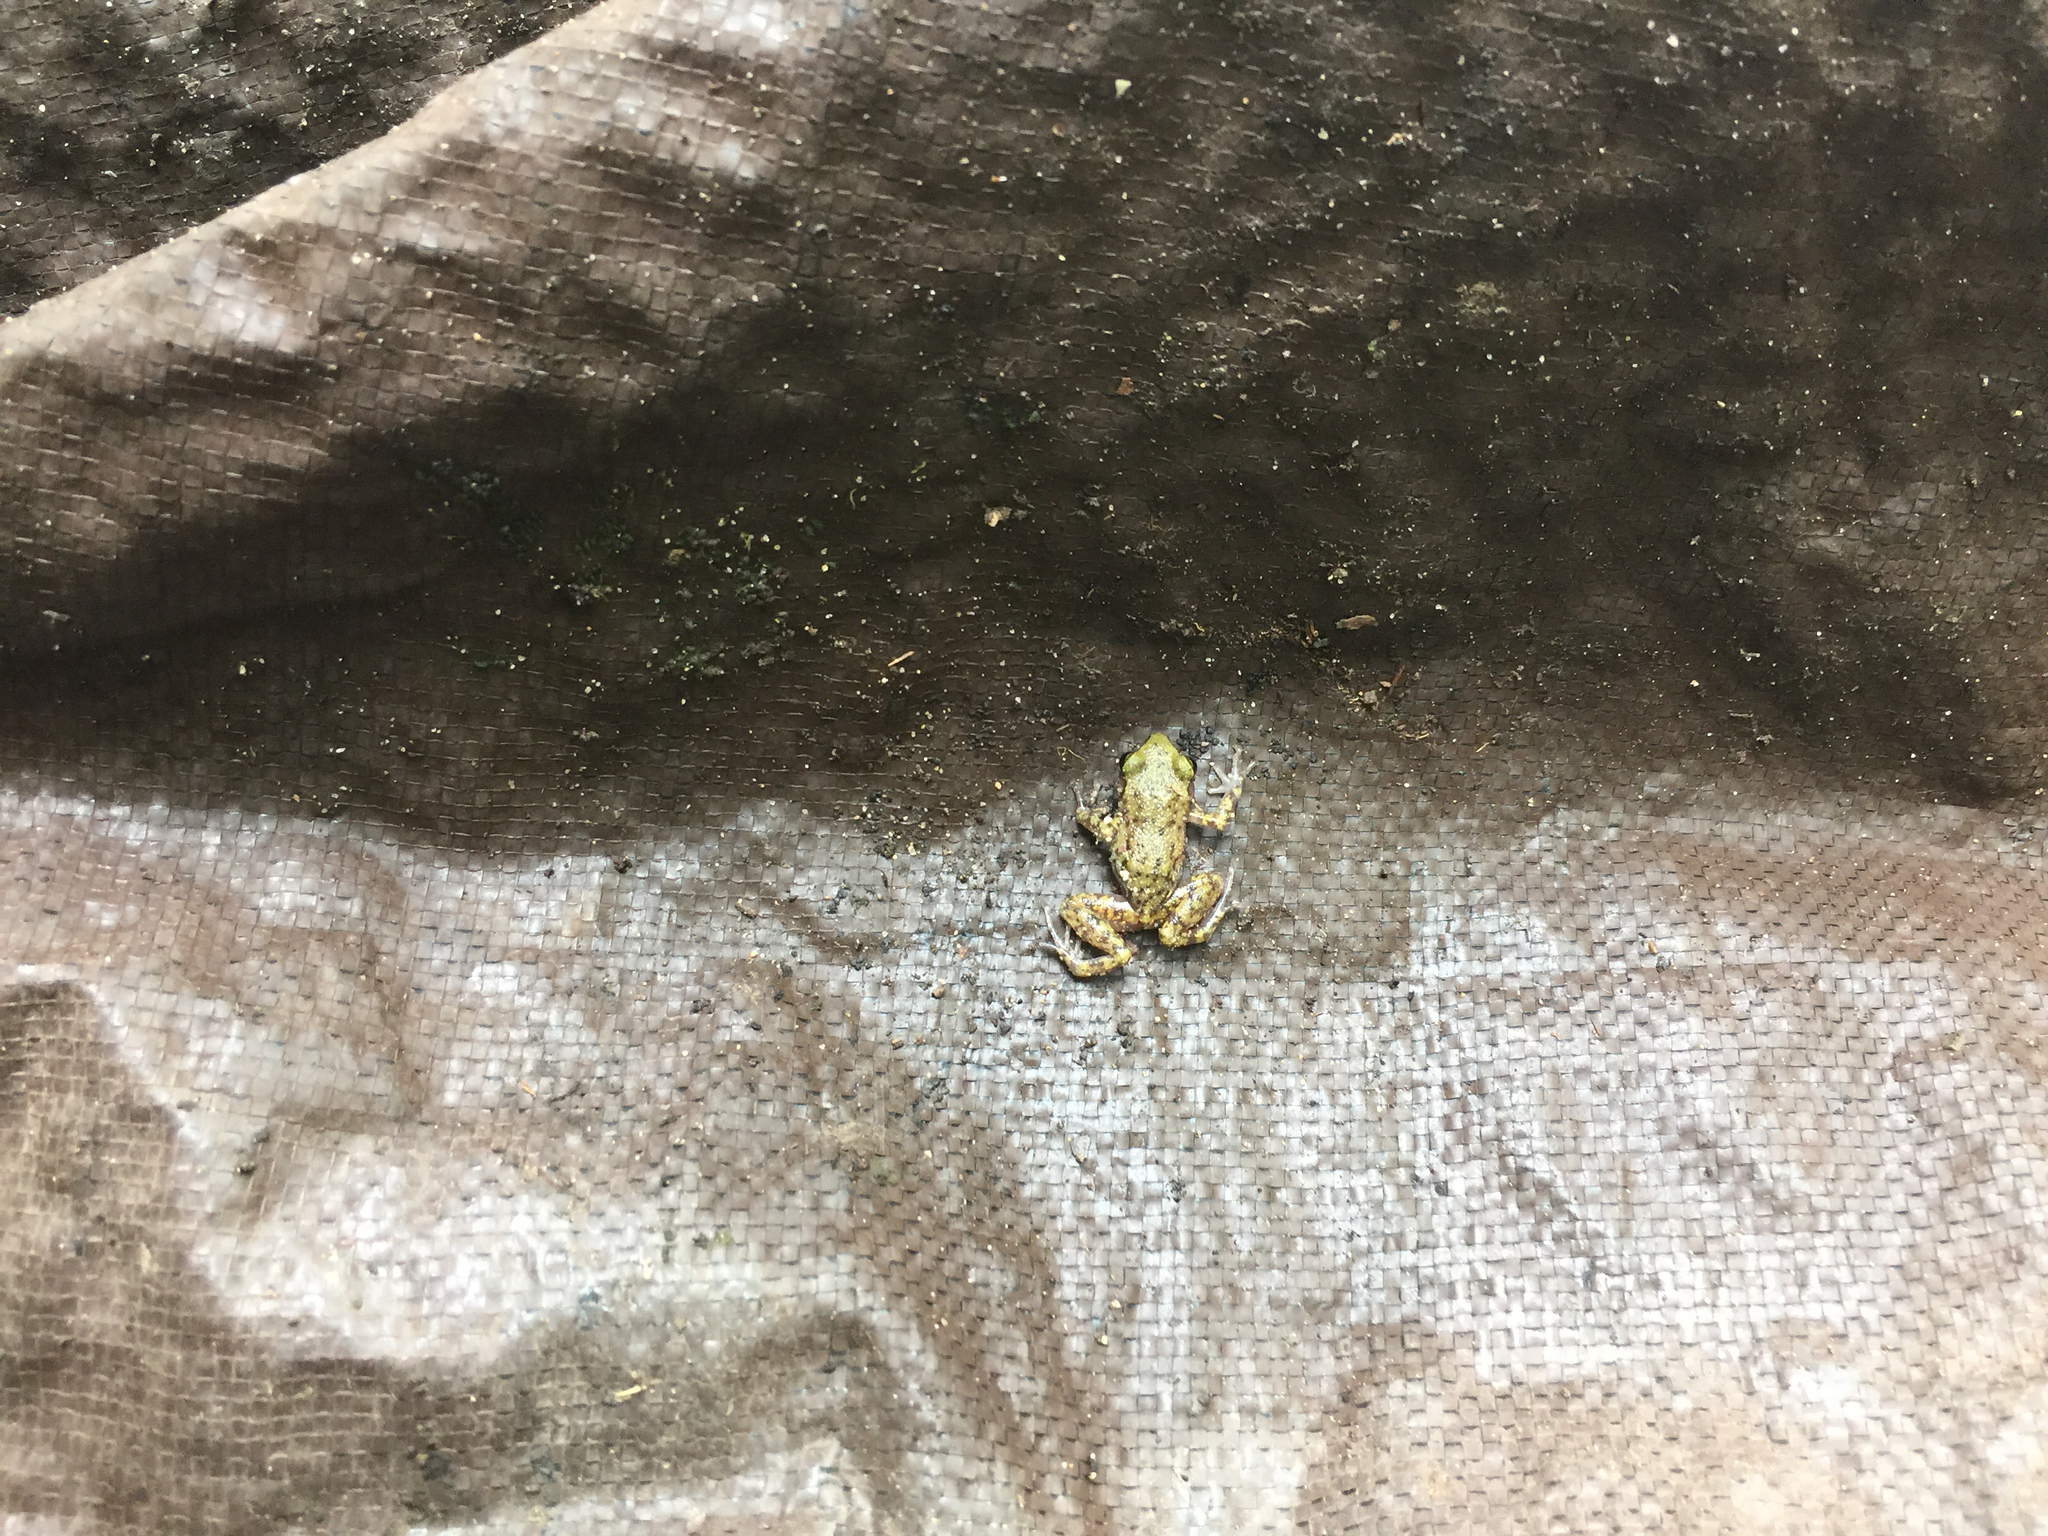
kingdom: Animalia
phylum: Chordata
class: Amphibia
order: Anura
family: Eleutherodactylidae
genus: Eleutherodactylus
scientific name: Eleutherodactylus marnockii
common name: Cliff chirping frog
